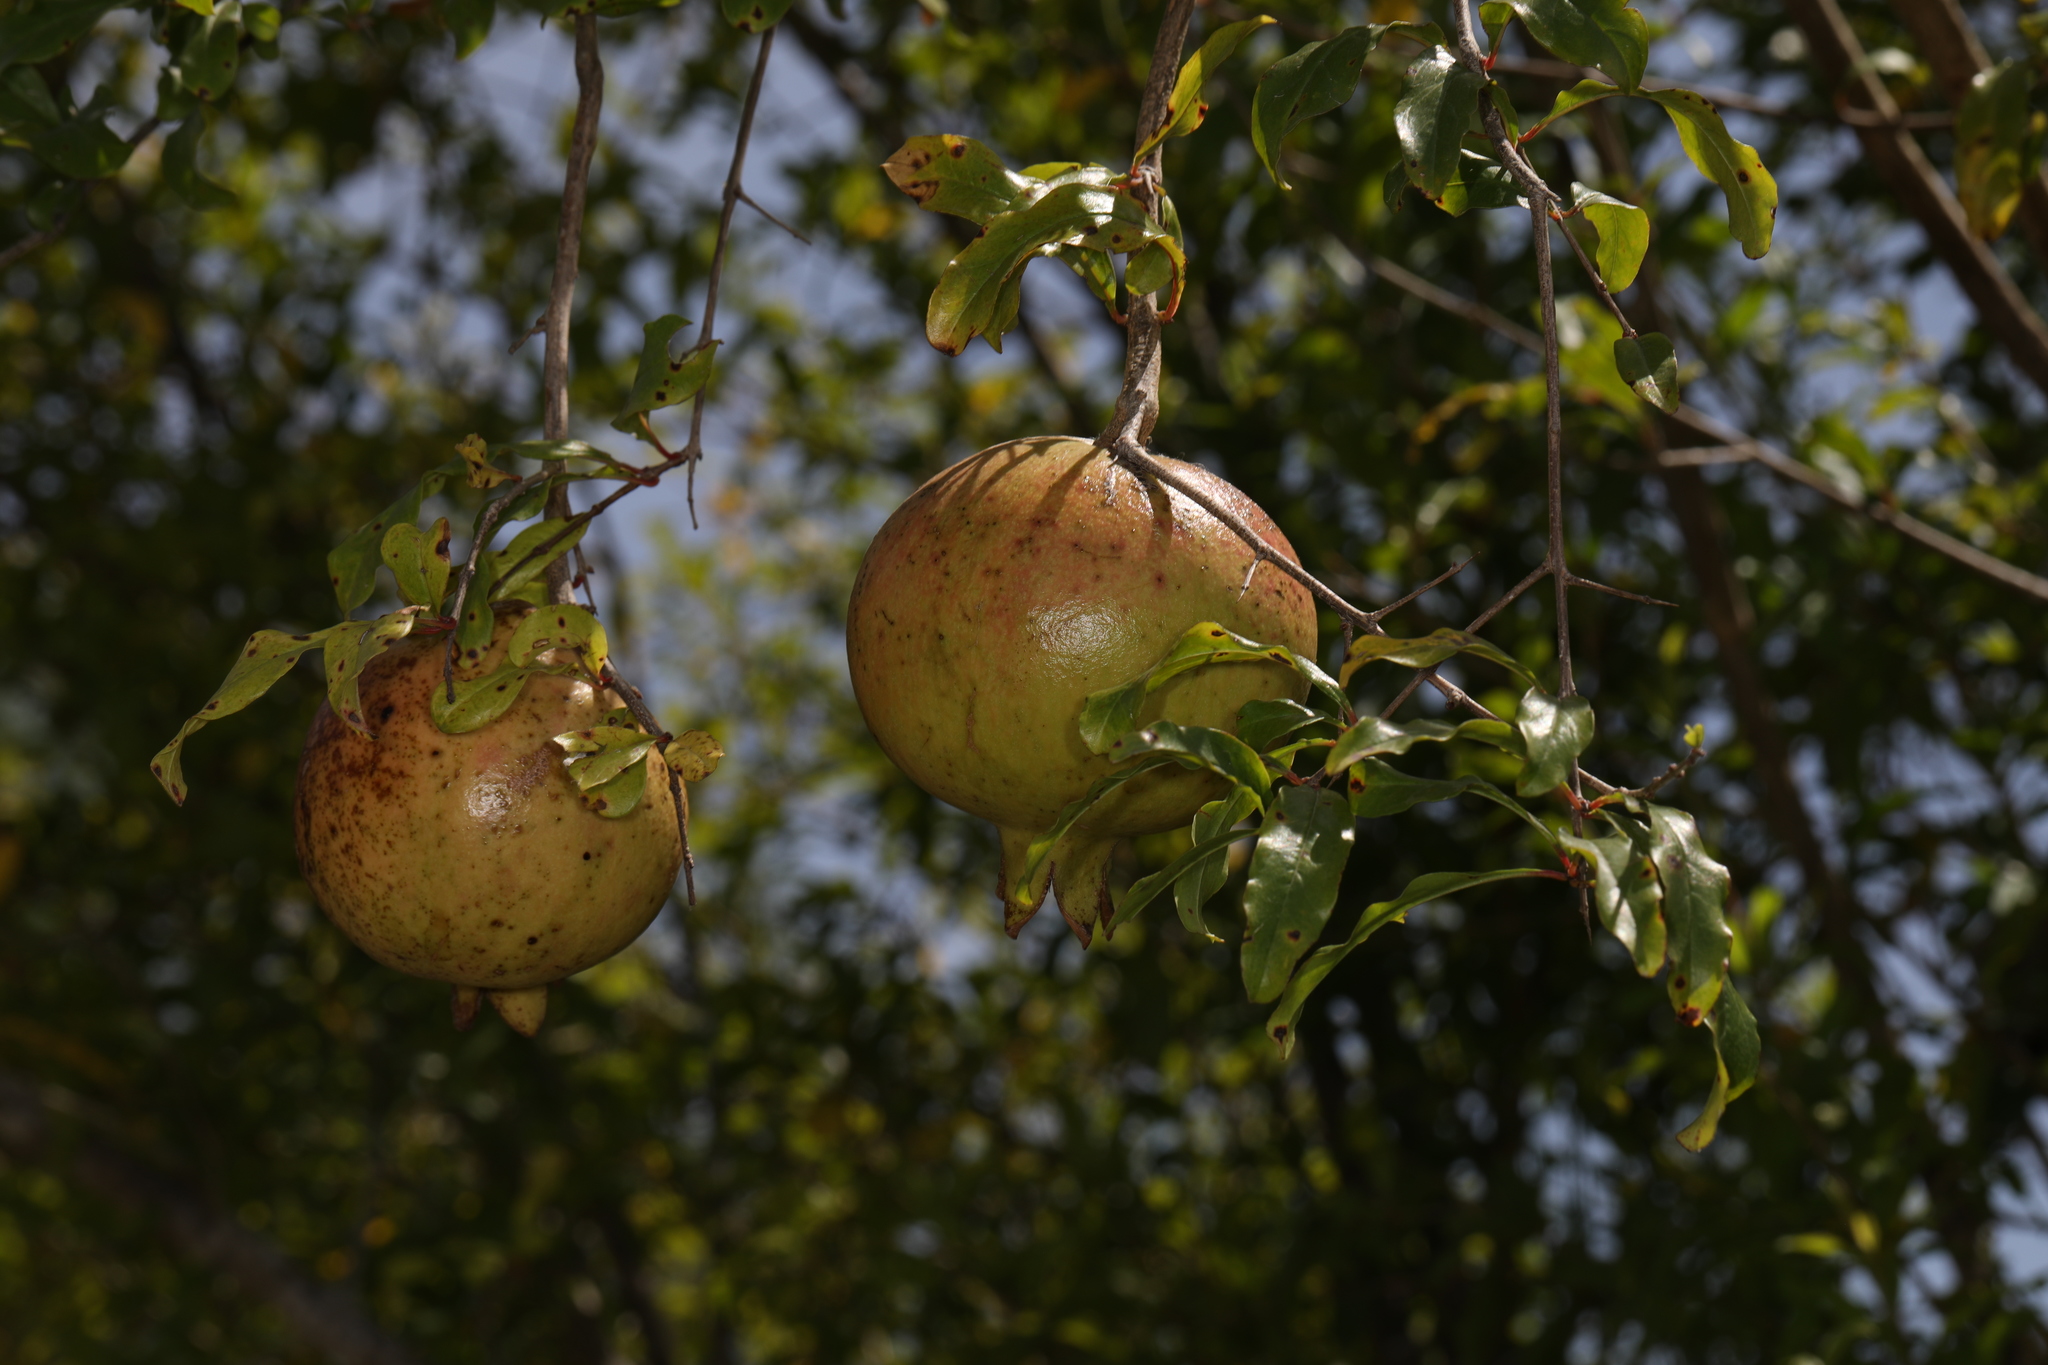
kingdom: Plantae
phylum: Tracheophyta
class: Magnoliopsida
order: Myrtales
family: Lythraceae
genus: Punica
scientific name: Punica granatum
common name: Pomegranate
